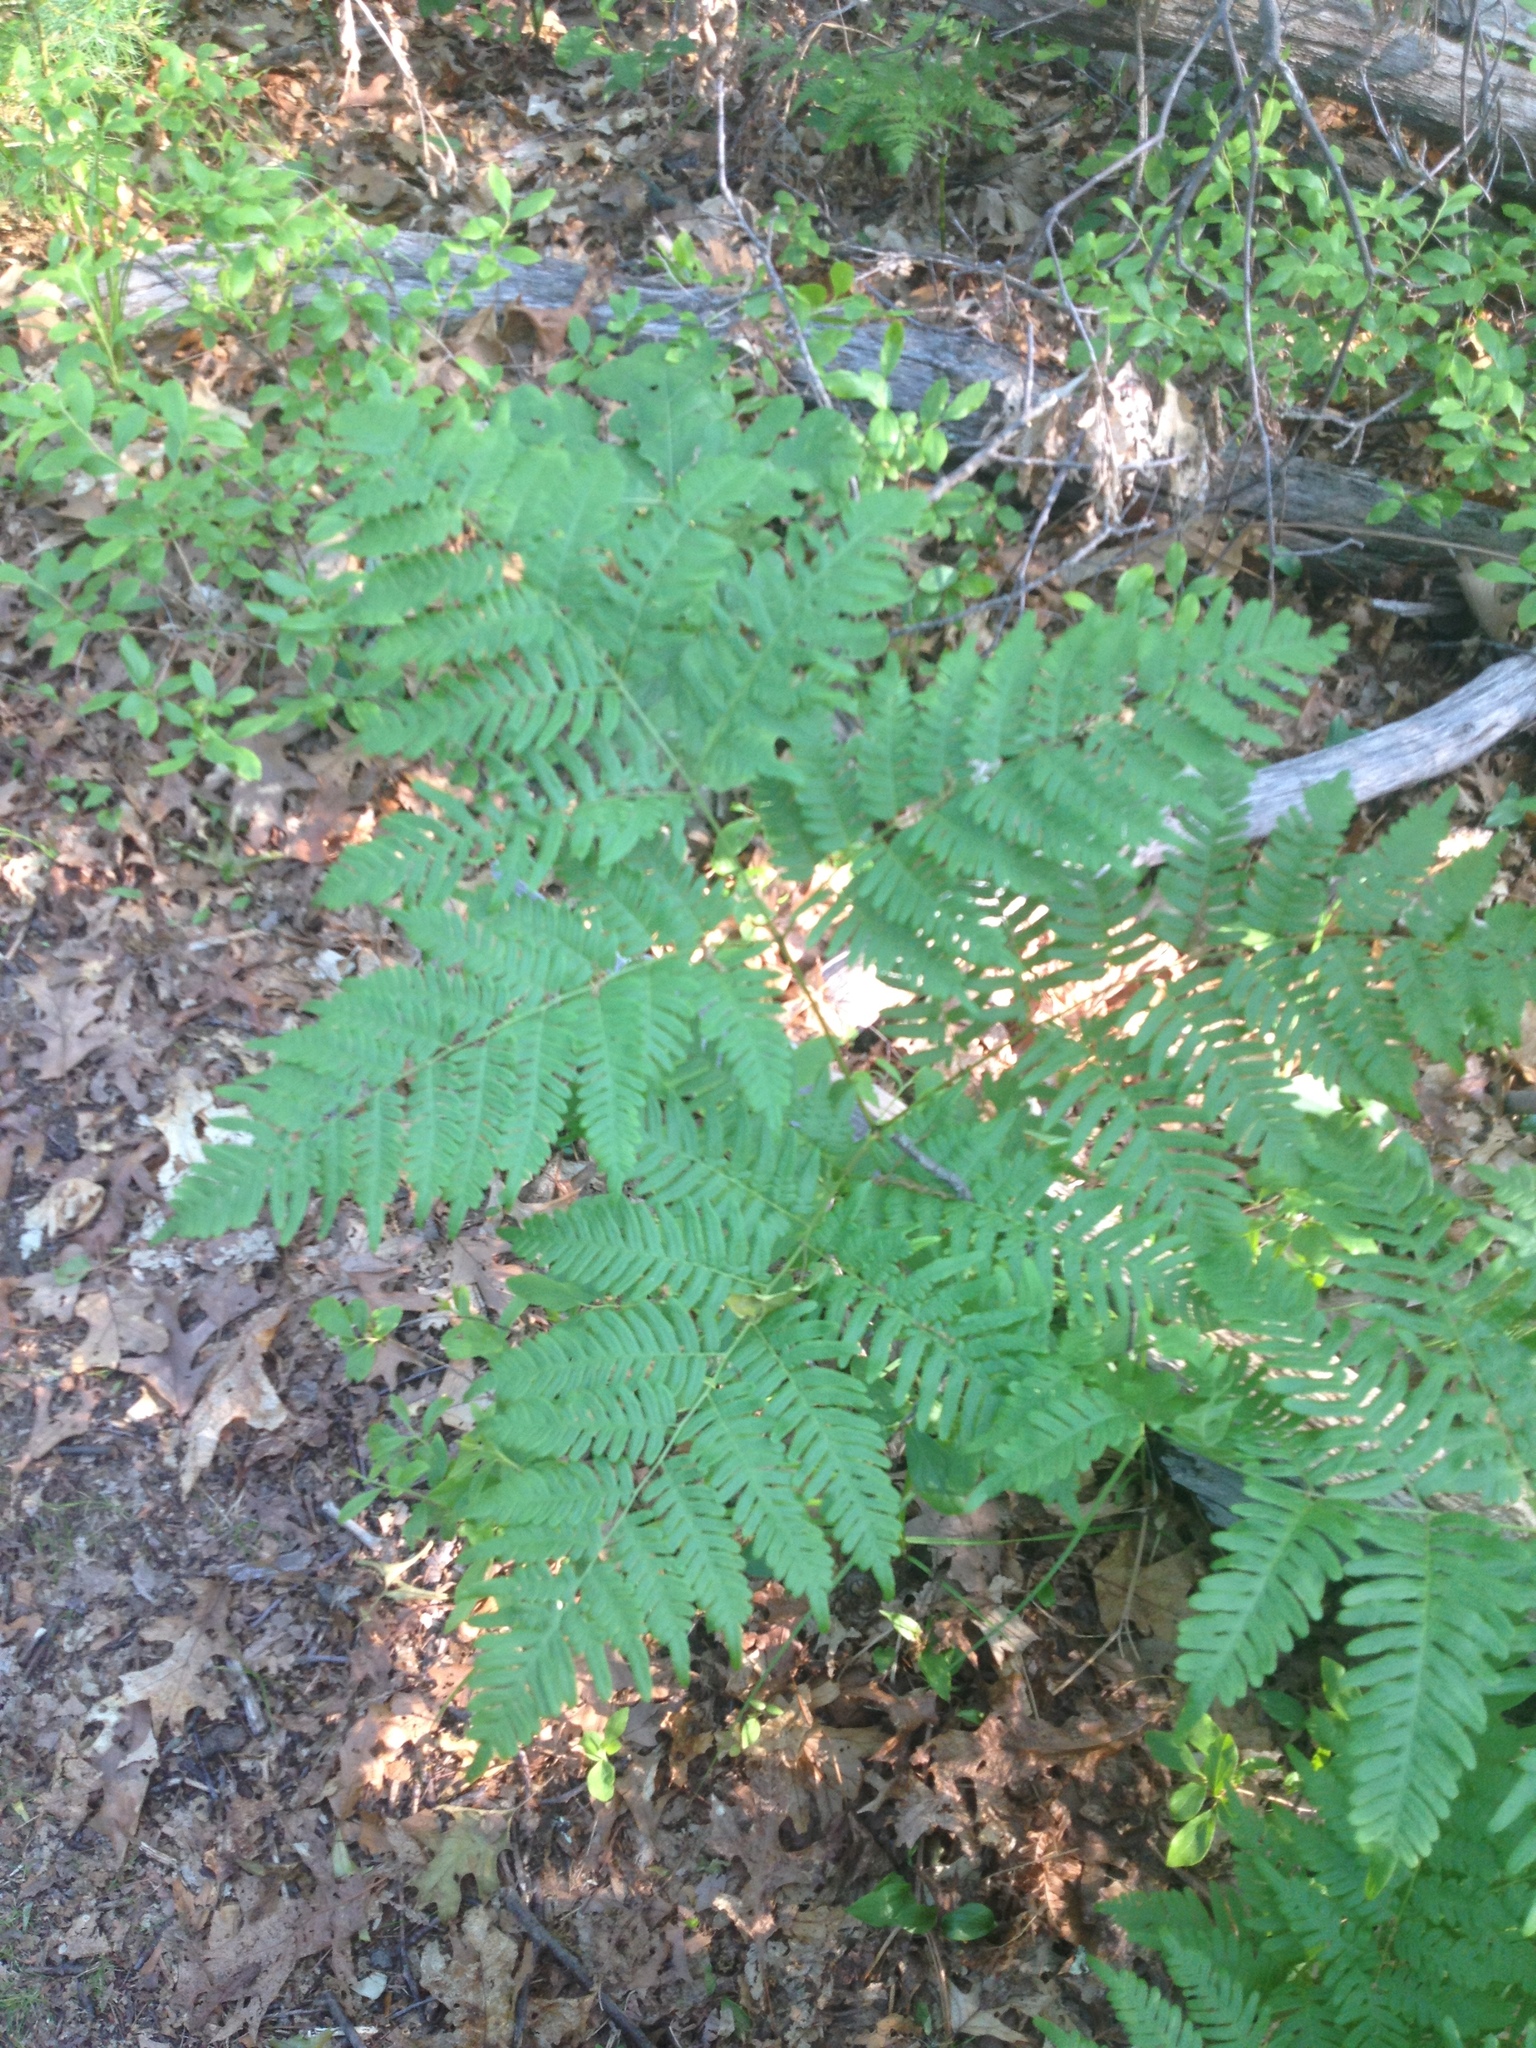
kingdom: Plantae
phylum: Tracheophyta
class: Polypodiopsida
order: Polypodiales
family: Dennstaedtiaceae
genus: Pteridium
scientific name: Pteridium aquilinum
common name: Bracken
